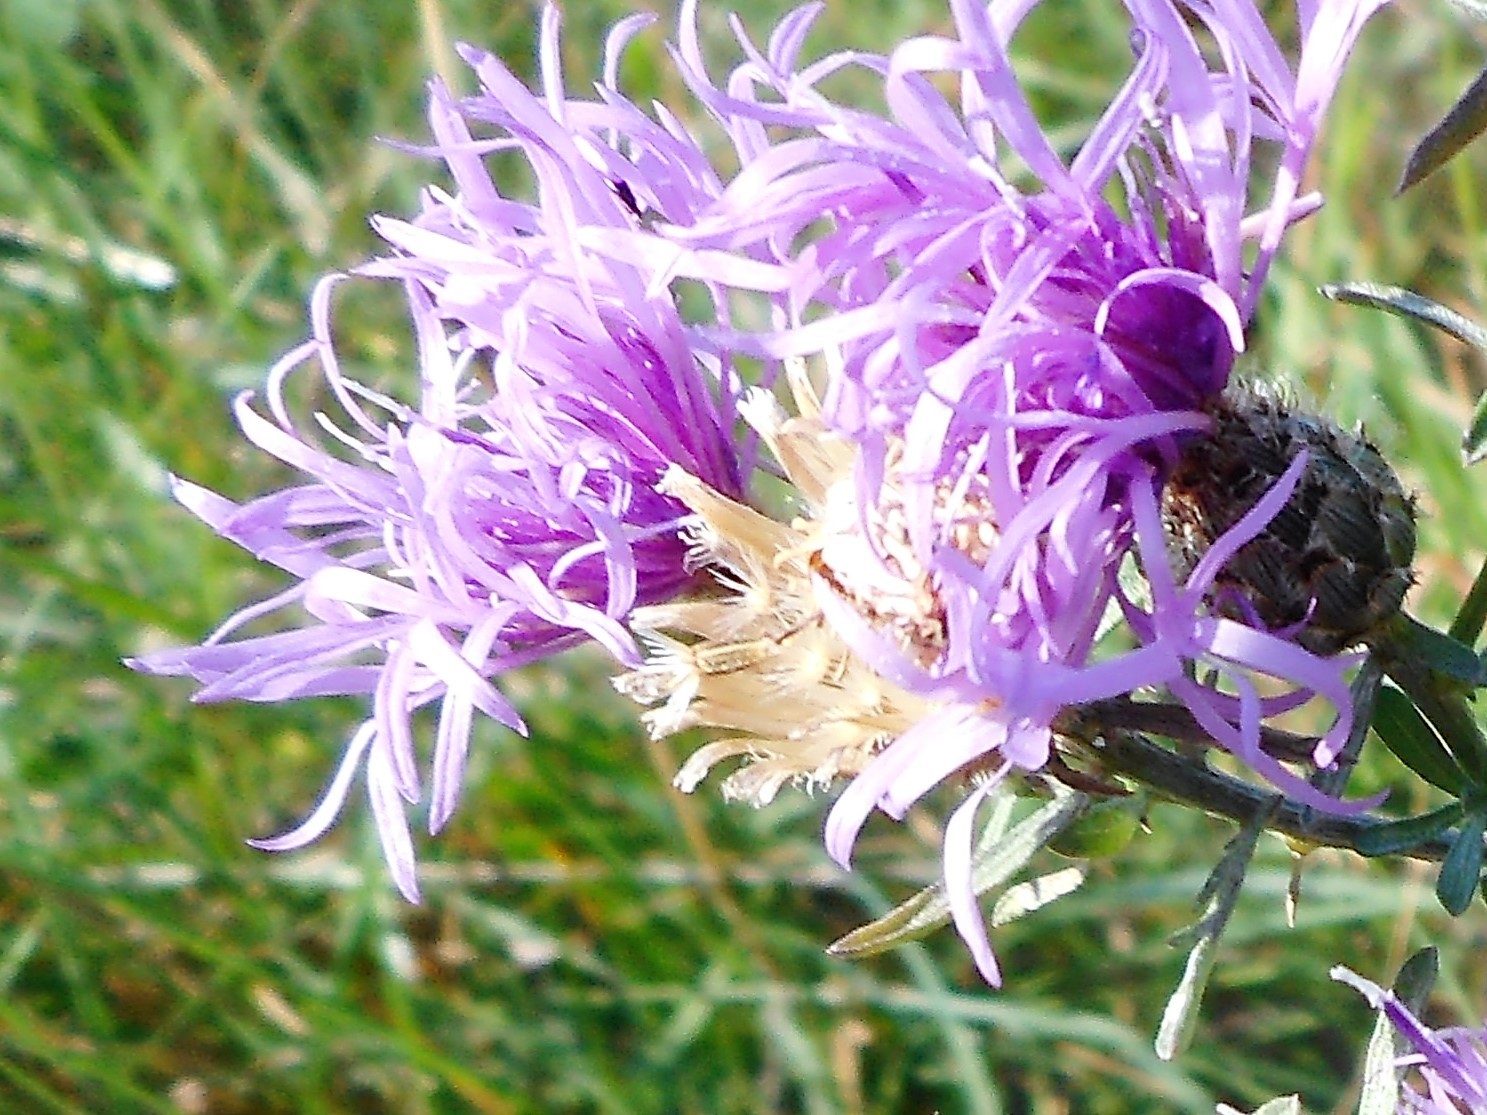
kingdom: Plantae
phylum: Tracheophyta
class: Magnoliopsida
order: Asterales
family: Asteraceae
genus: Centaurea
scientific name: Centaurea stoebe
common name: Spotted knapweed
